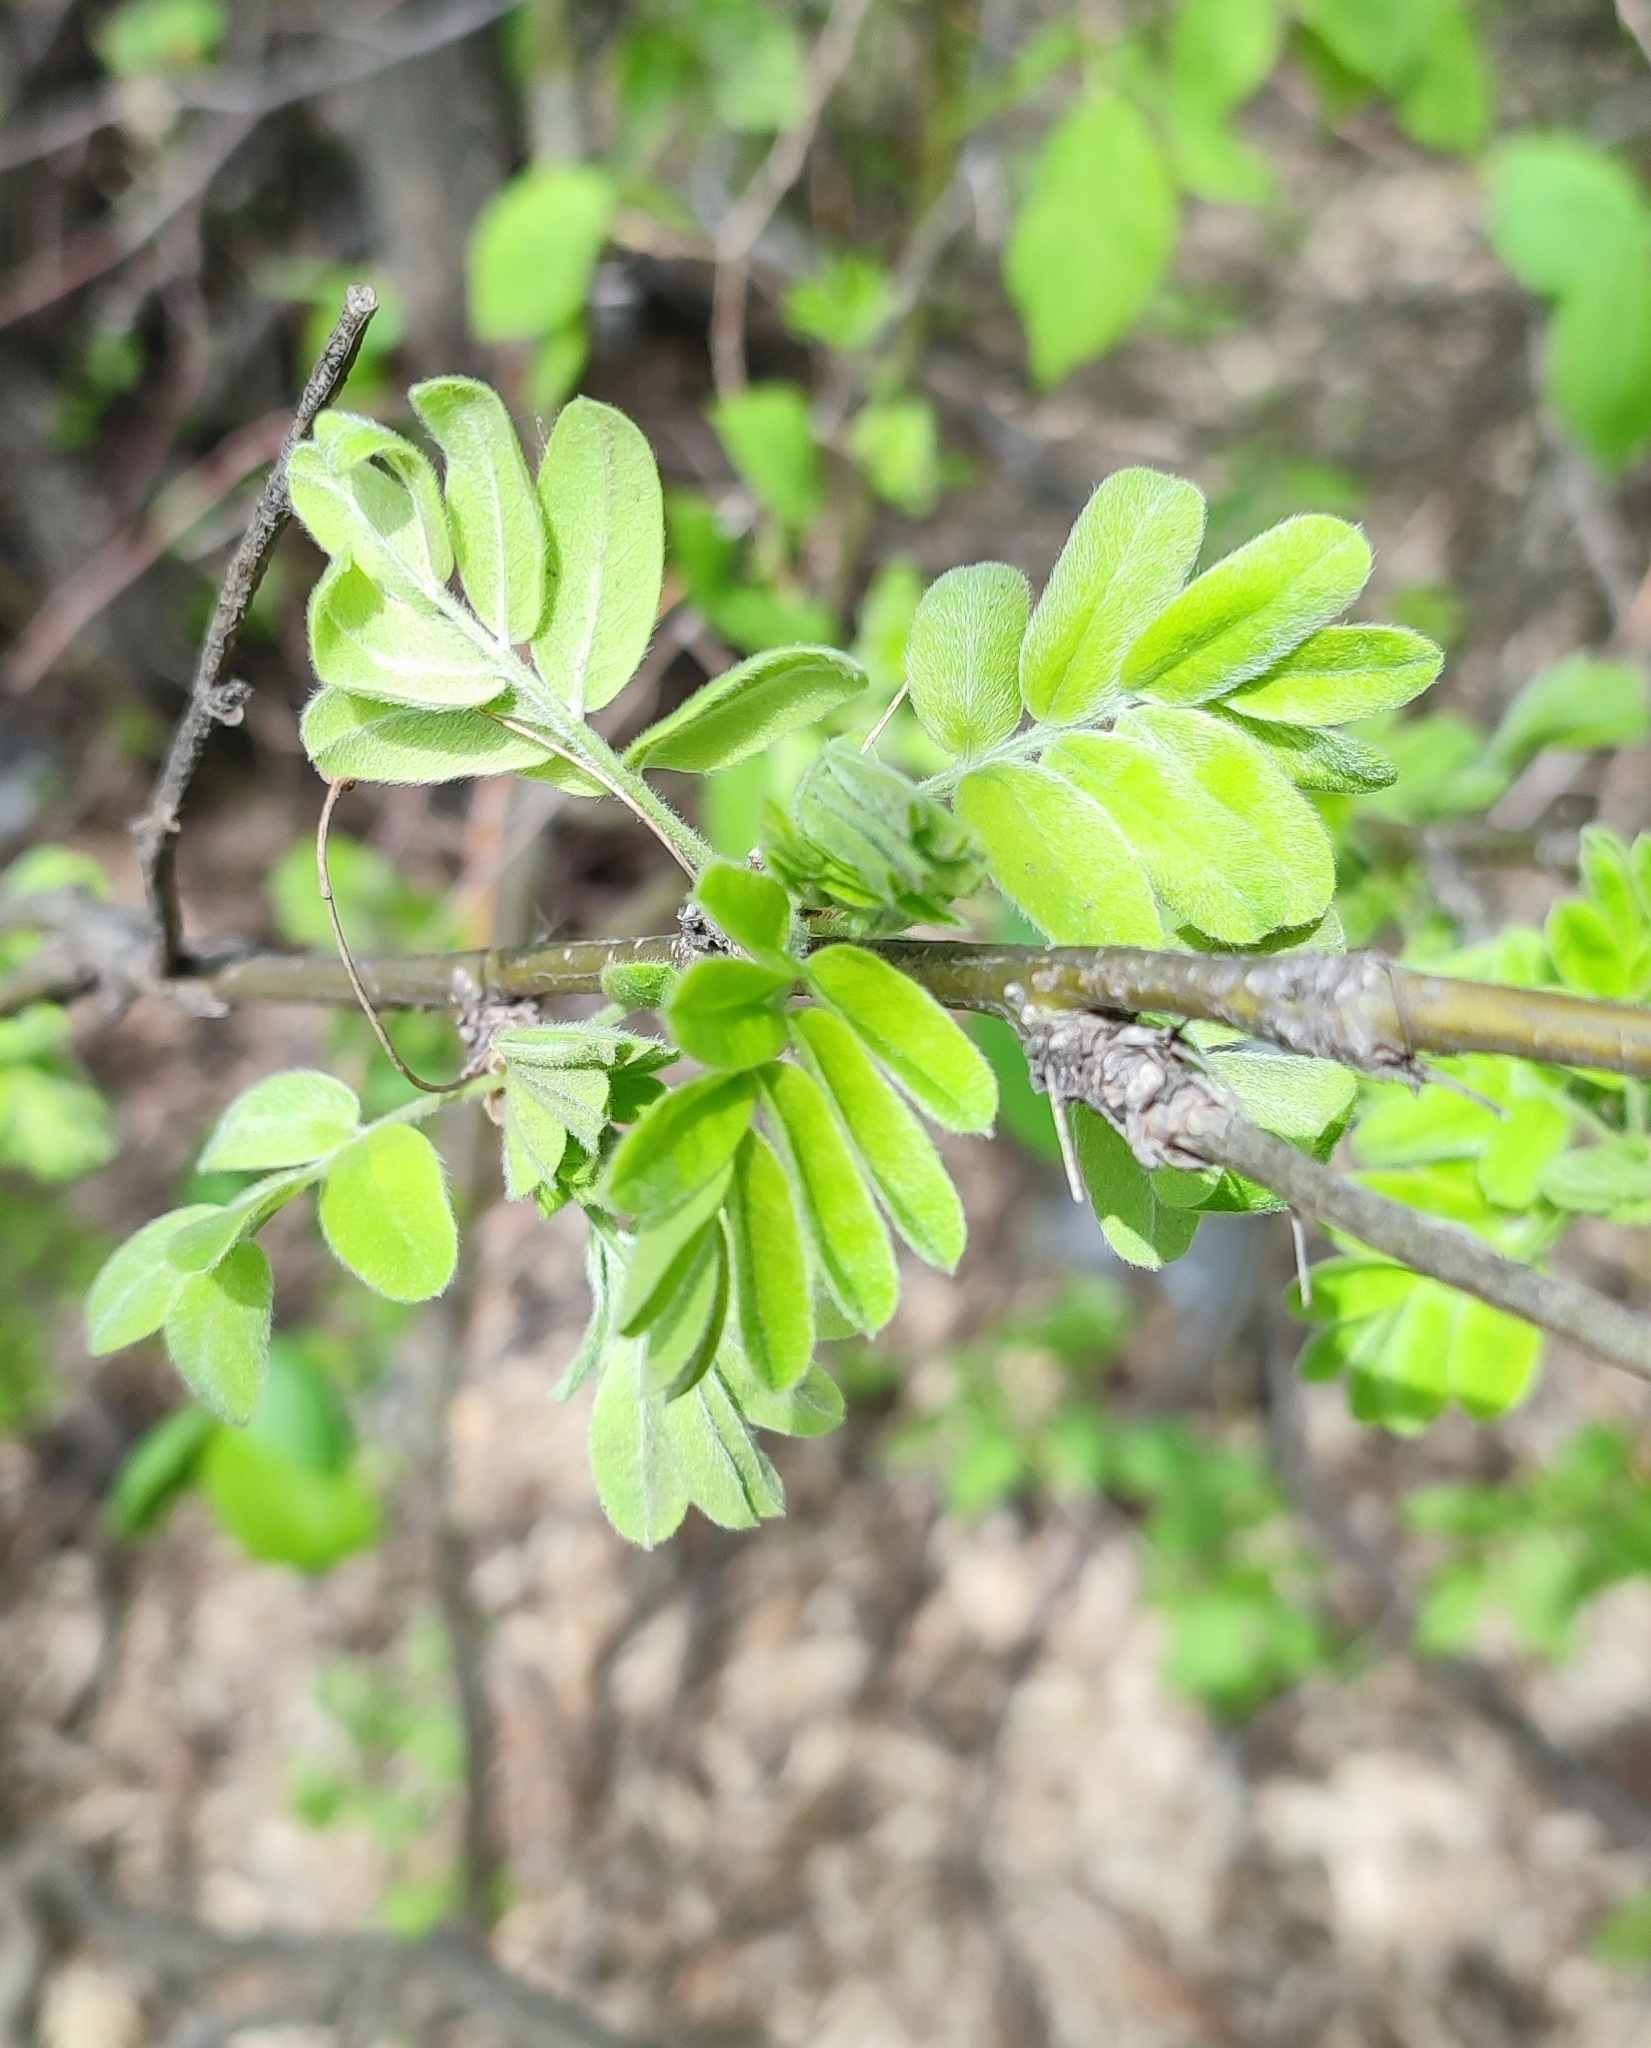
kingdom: Plantae
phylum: Tracheophyta
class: Magnoliopsida
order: Fabales
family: Fabaceae
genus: Caragana
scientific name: Caragana arborescens
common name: Siberian peashrub
